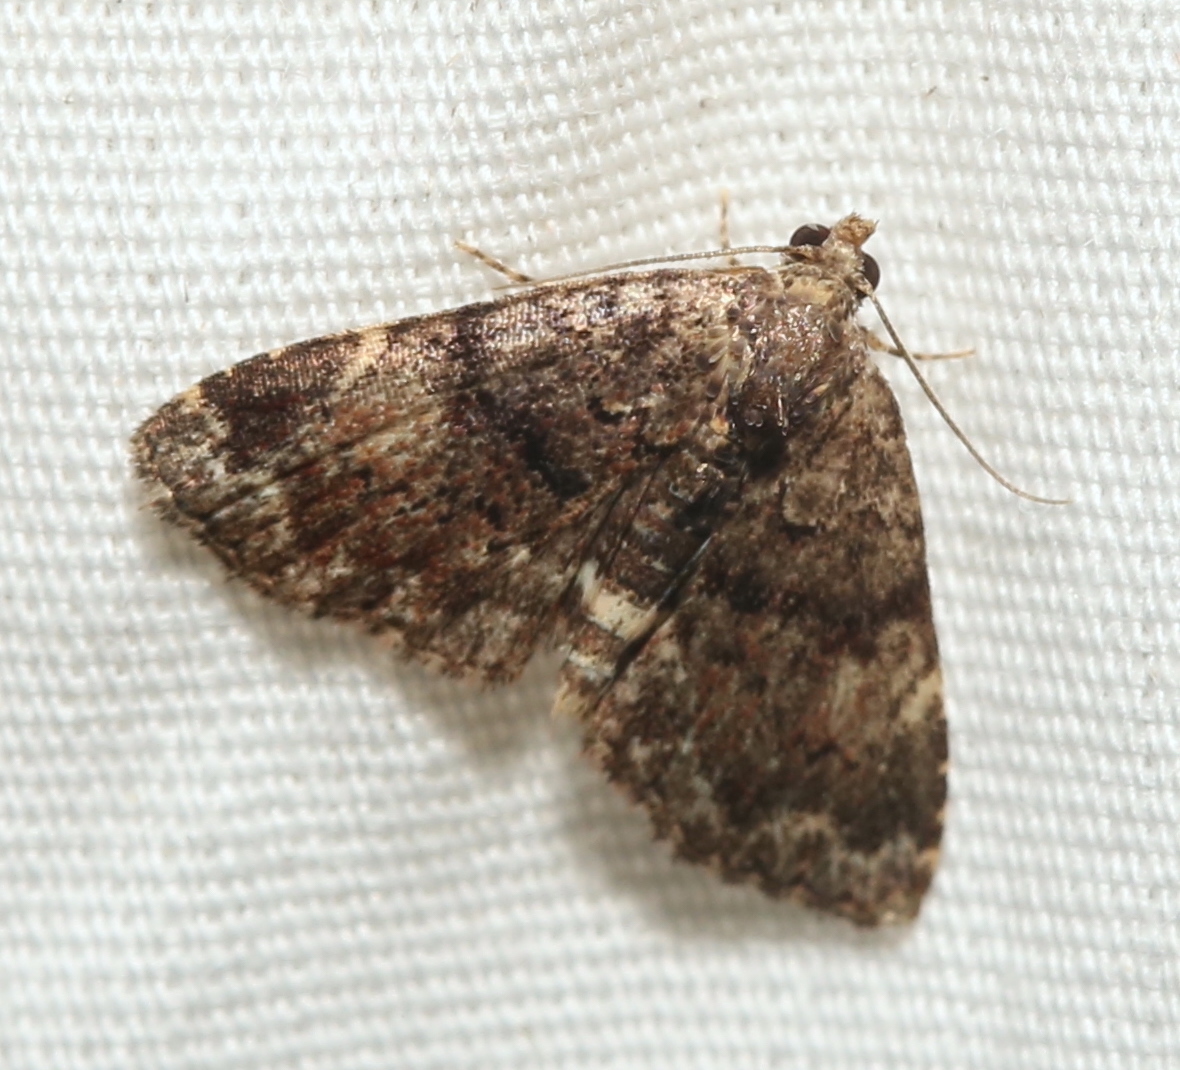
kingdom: Animalia
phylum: Arthropoda
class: Insecta
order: Lepidoptera
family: Erebidae
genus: Metalectra
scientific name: Metalectra richardsi
